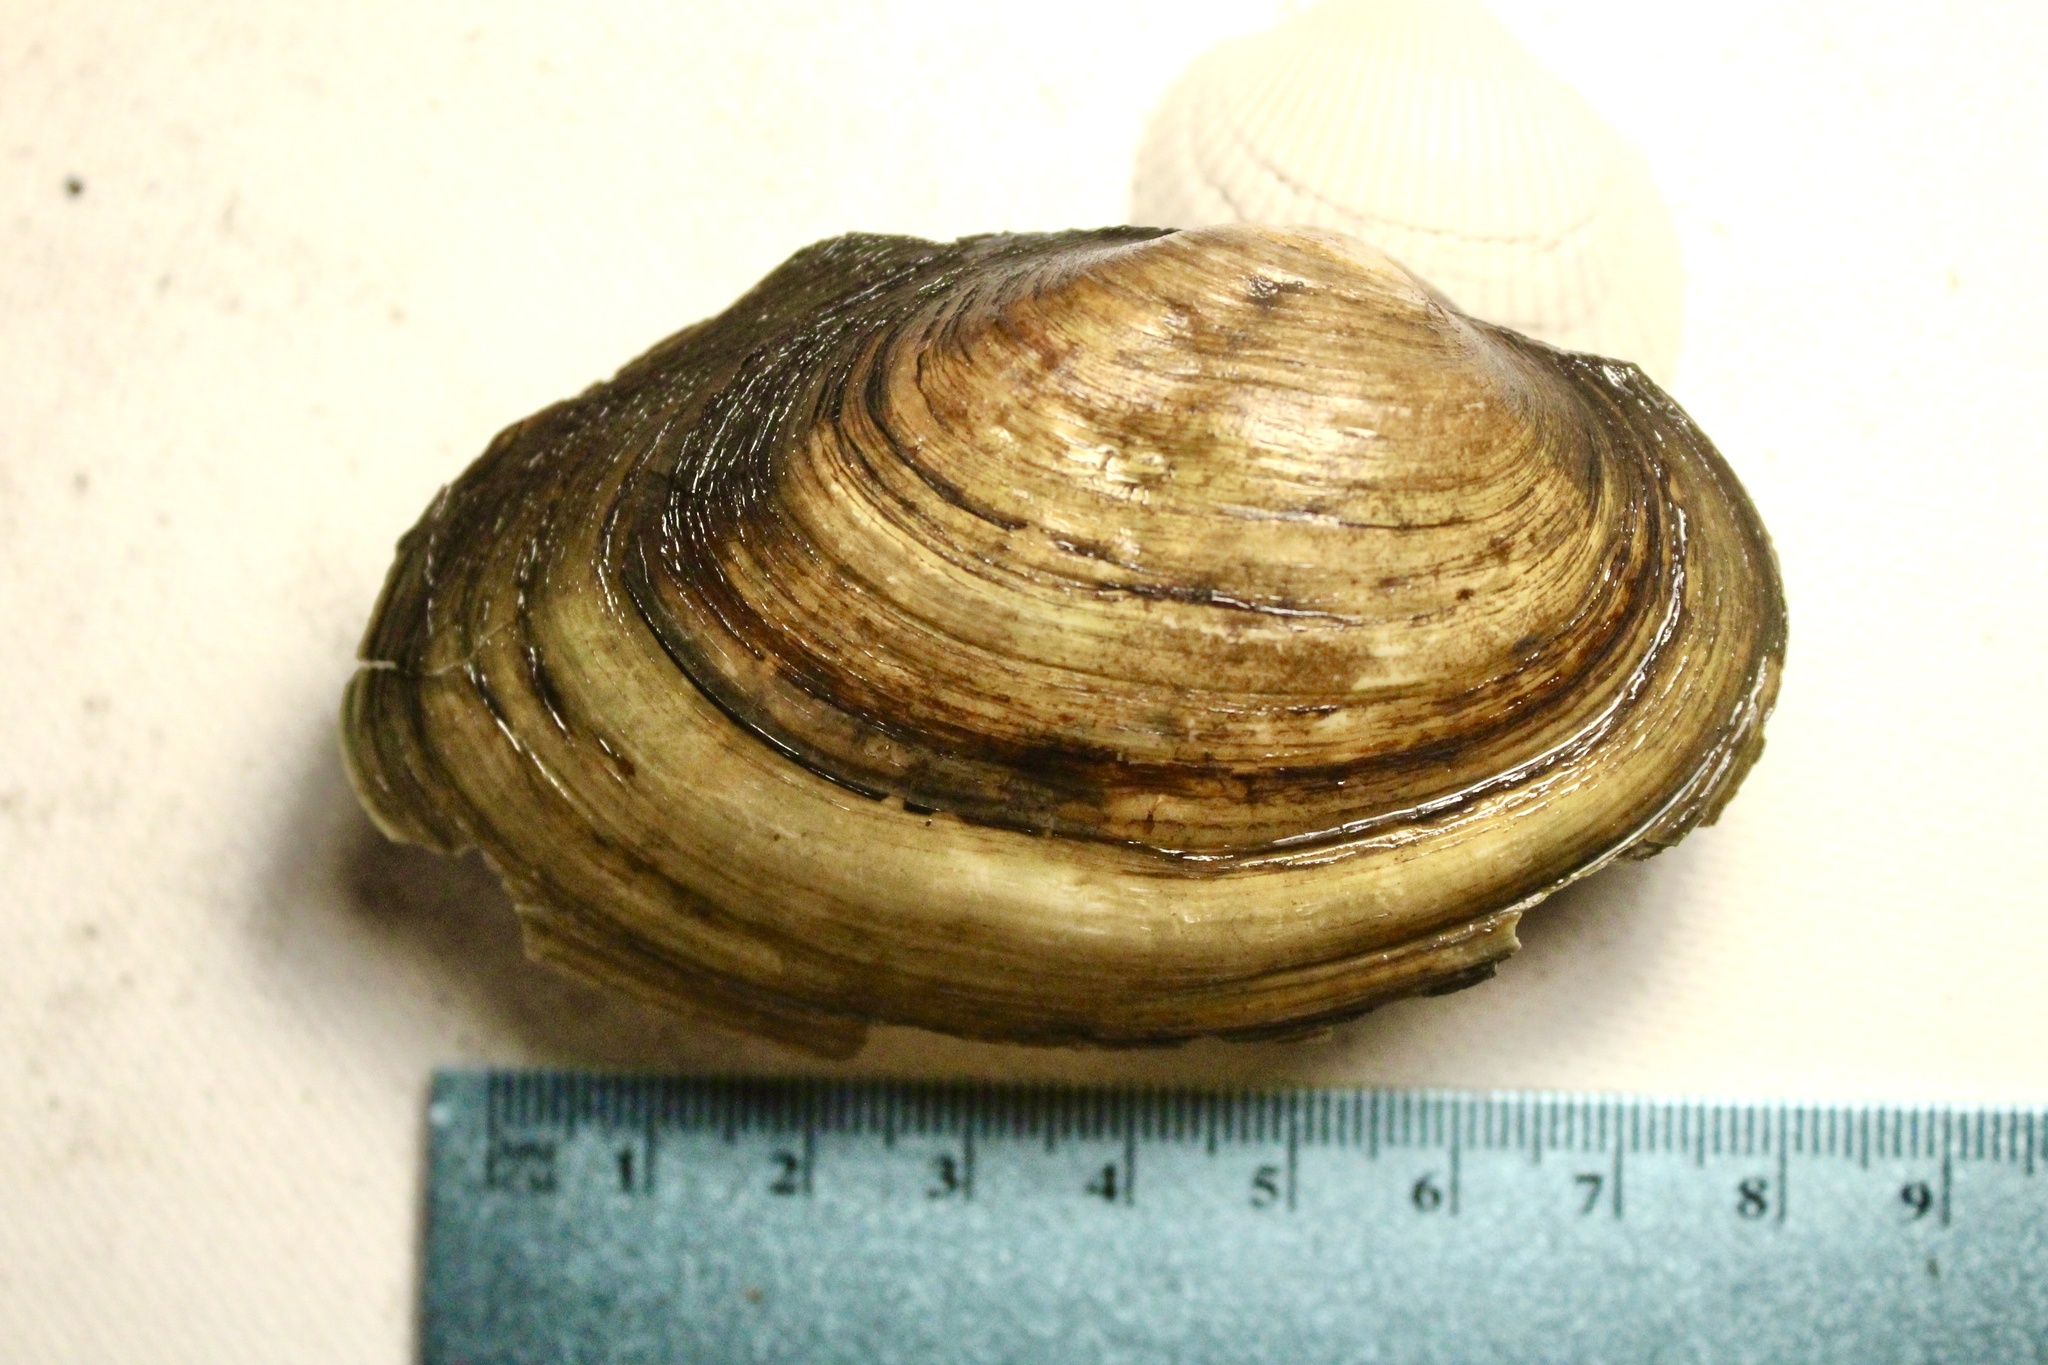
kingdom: Animalia
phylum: Mollusca
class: Bivalvia
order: Unionida
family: Unionidae
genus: Pyganodon
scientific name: Pyganodon grandis
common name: Giant floater
